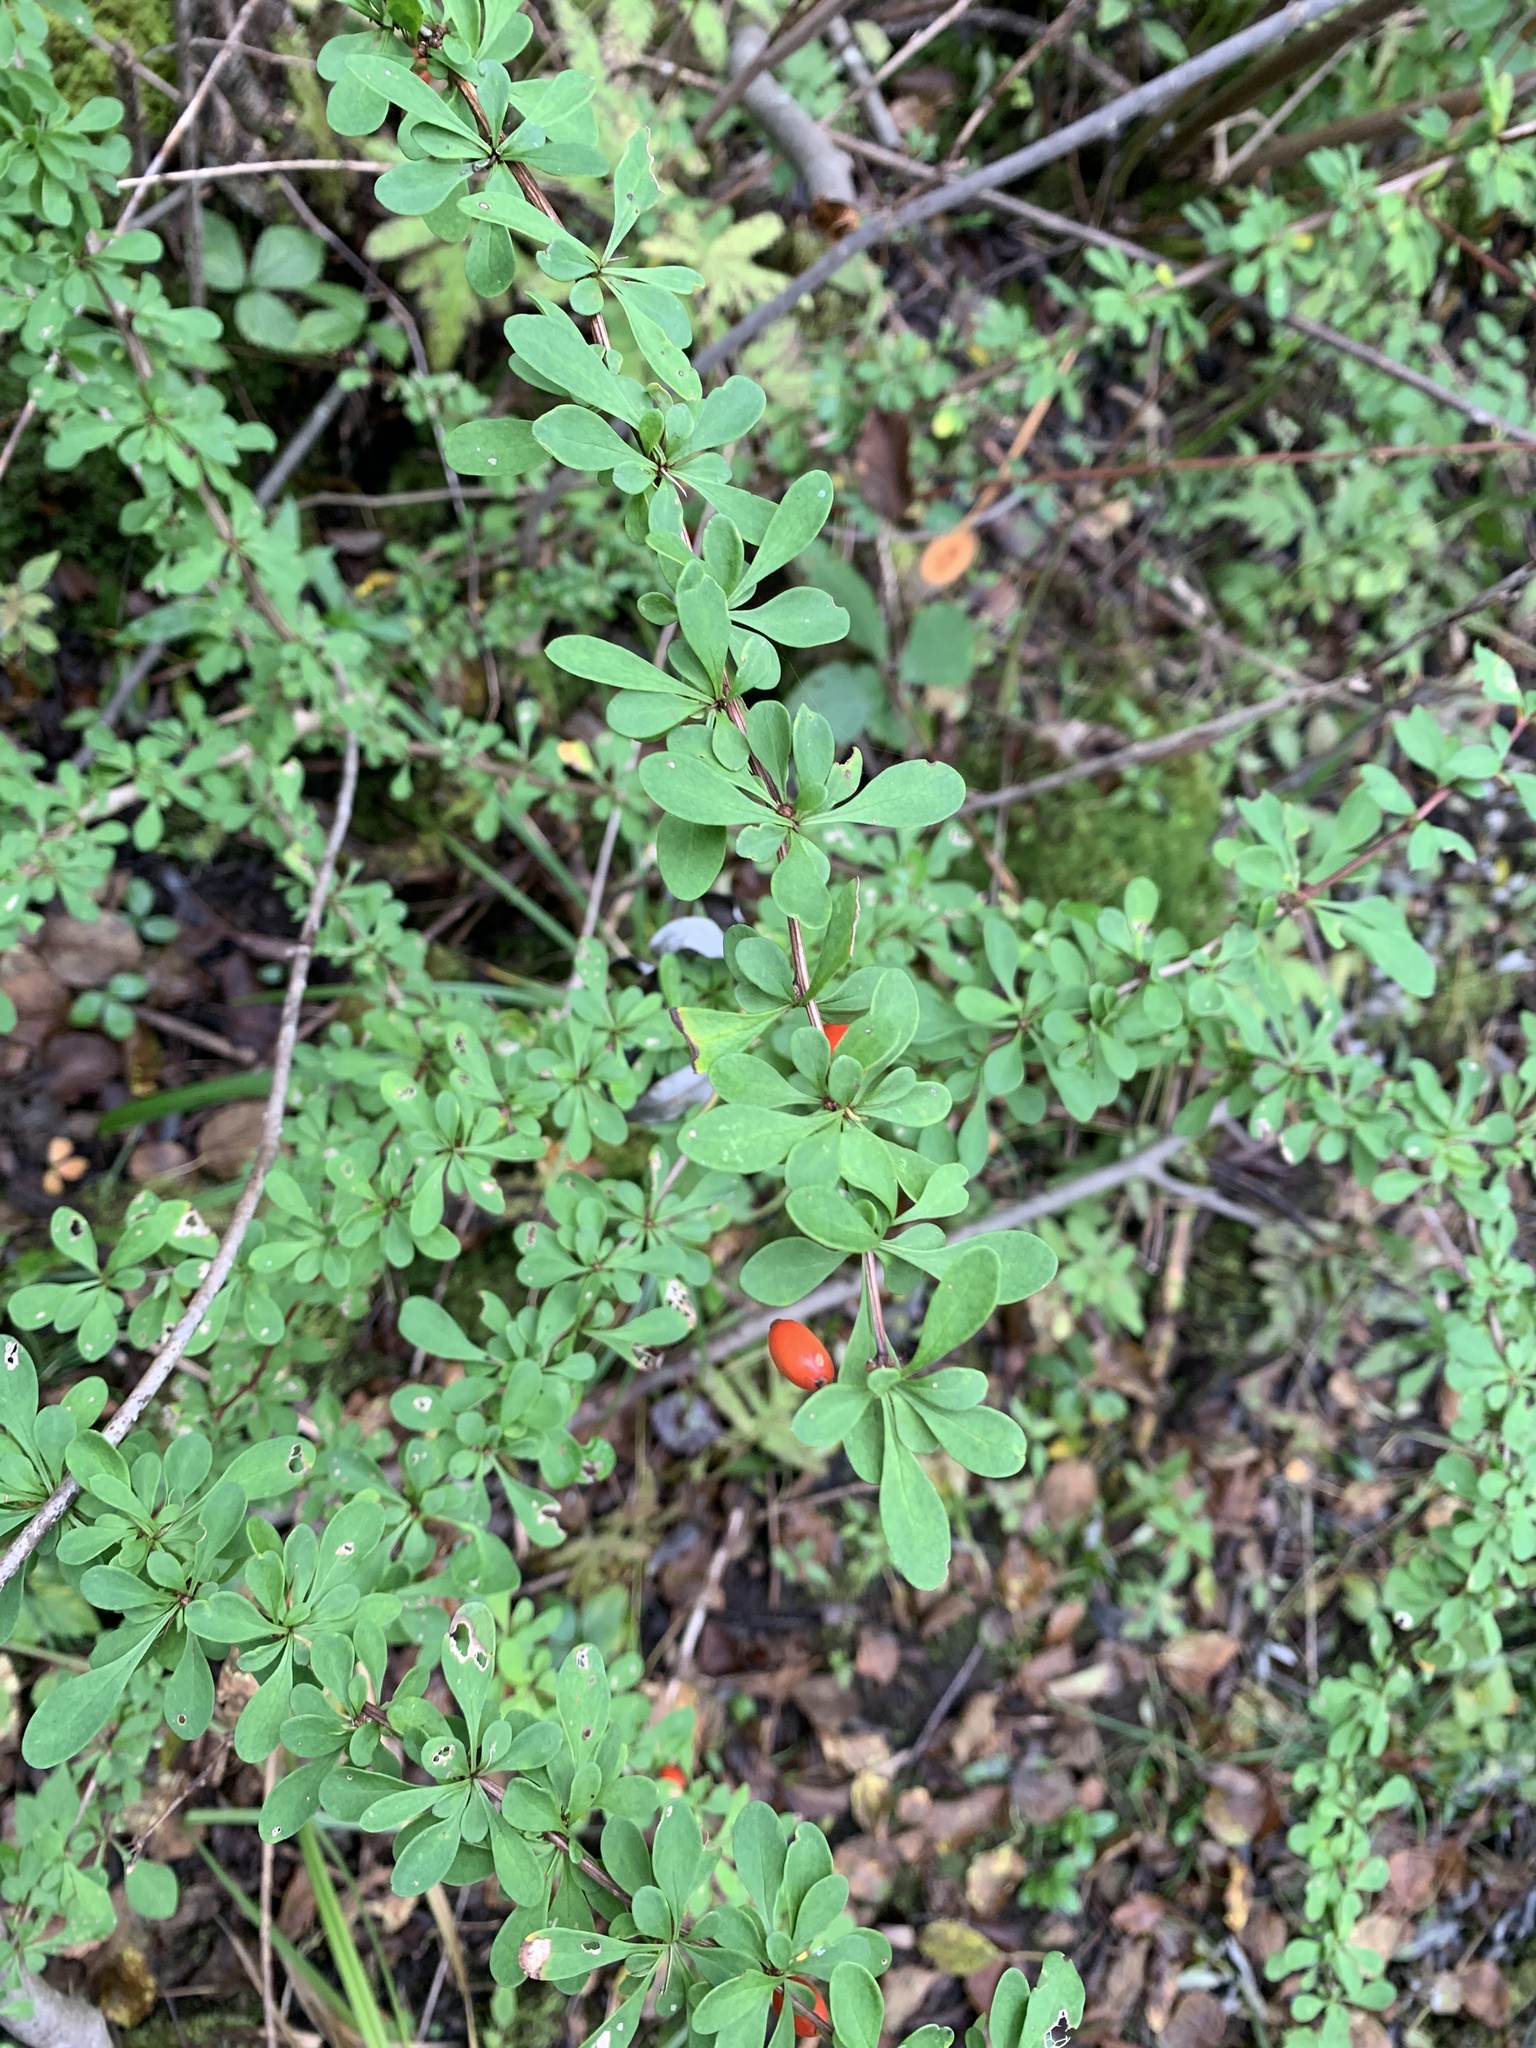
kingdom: Plantae
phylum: Tracheophyta
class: Magnoliopsida
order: Ranunculales
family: Berberidaceae
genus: Berberis
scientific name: Berberis thunbergii
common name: Japanese barberry
